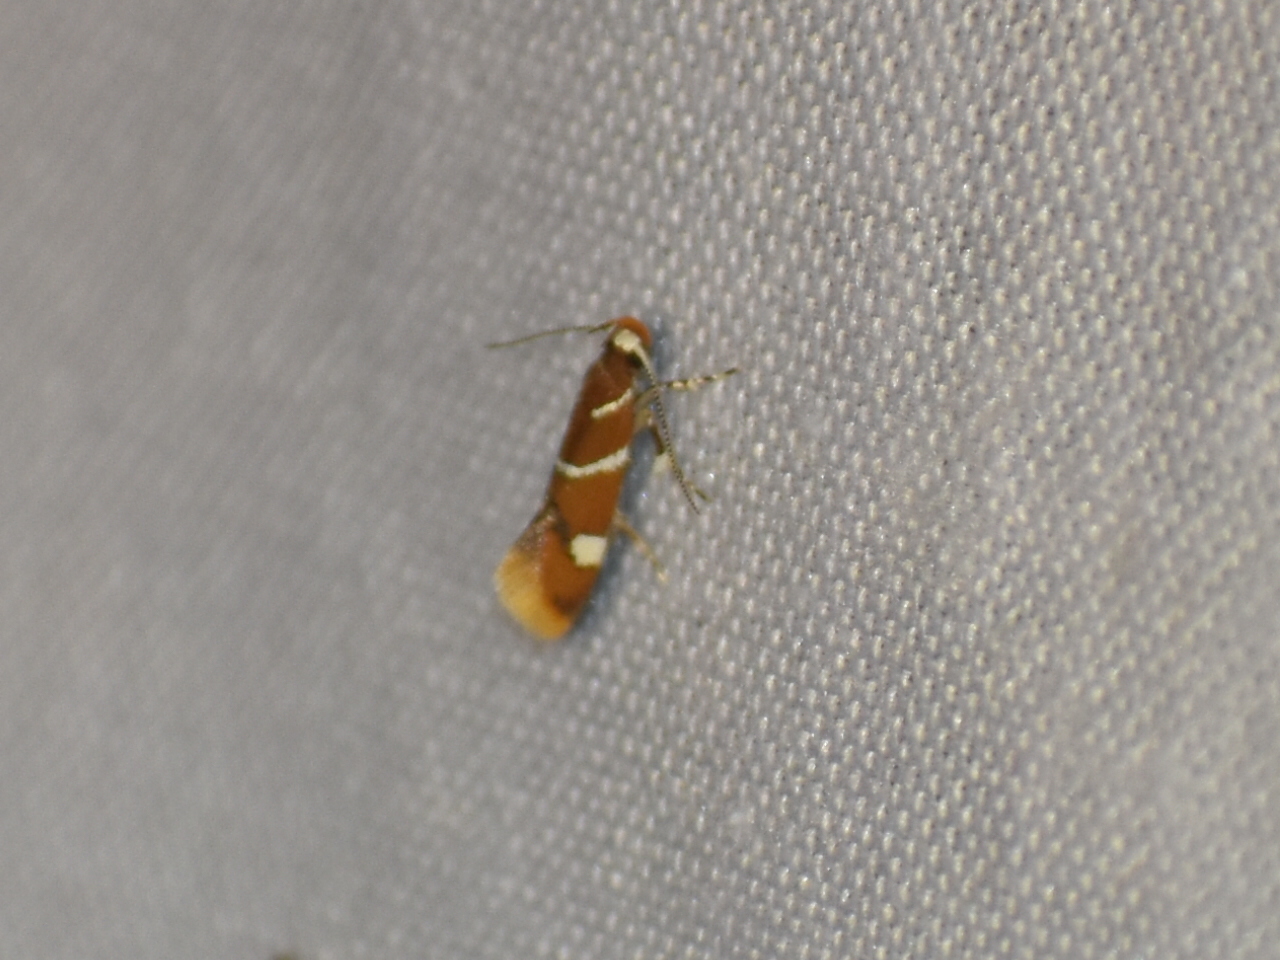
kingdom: Animalia
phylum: Arthropoda
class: Insecta
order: Lepidoptera
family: Oecophoridae
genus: Promalactis
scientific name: Promalactis suzukiella
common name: Moth
